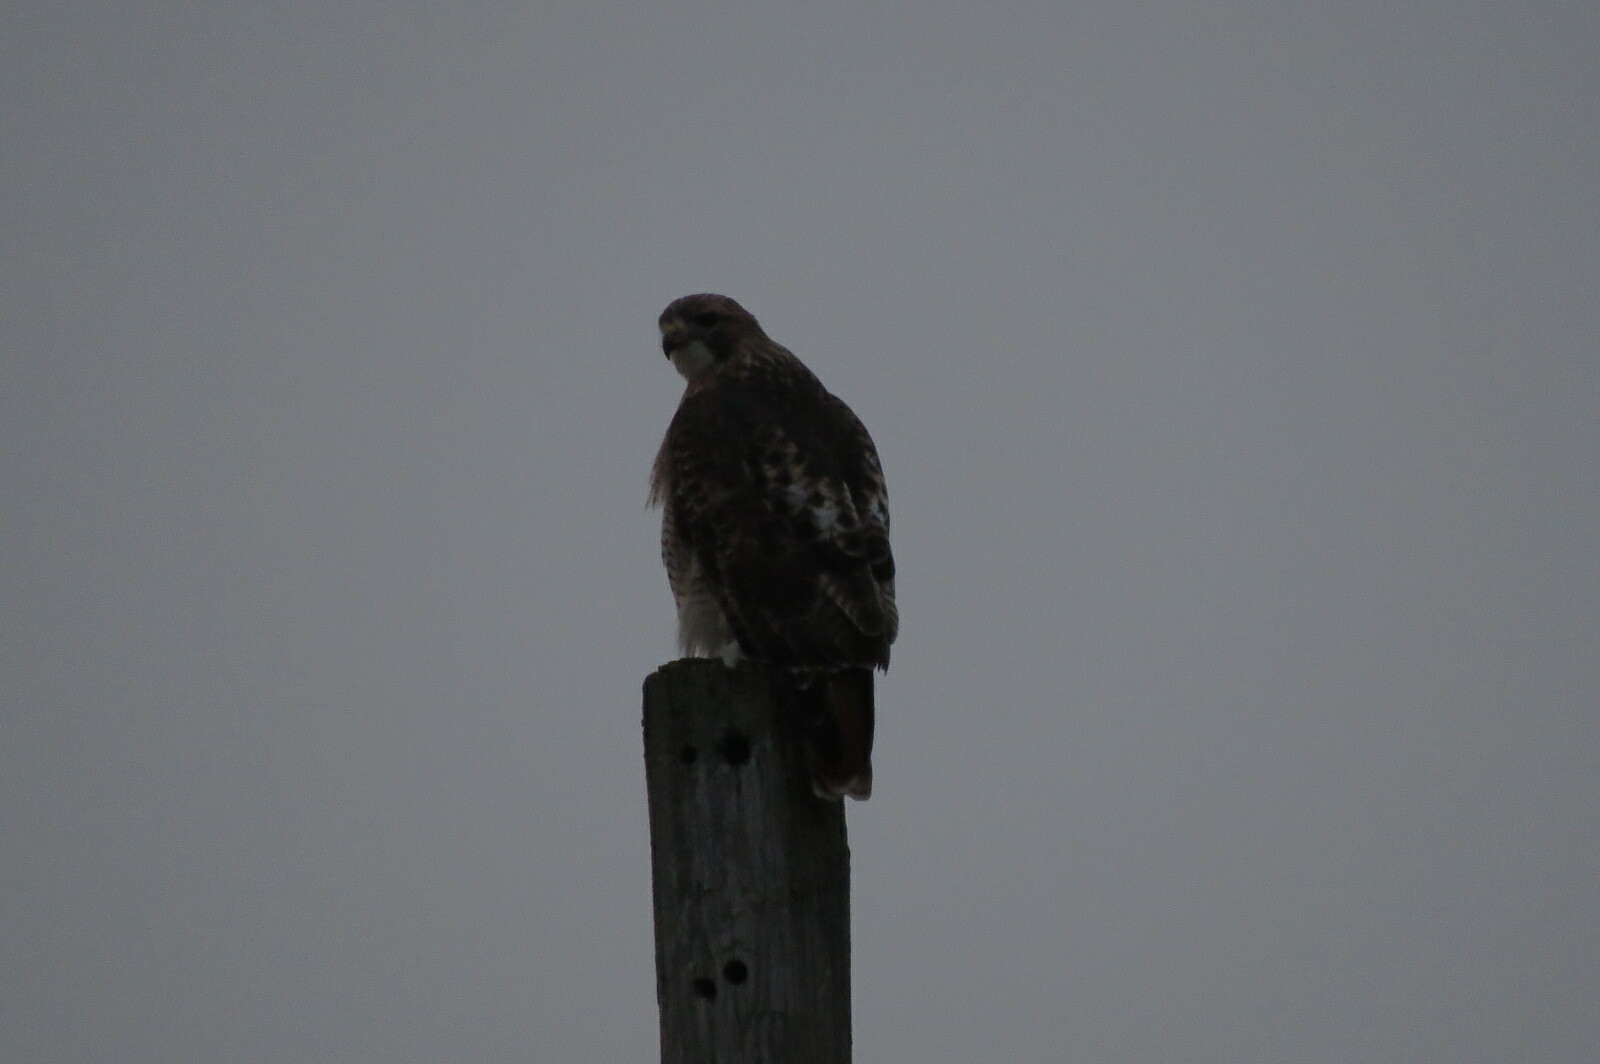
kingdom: Animalia
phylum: Chordata
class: Aves
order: Accipitriformes
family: Accipitridae
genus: Buteo
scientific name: Buteo jamaicensis
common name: Red-tailed hawk
